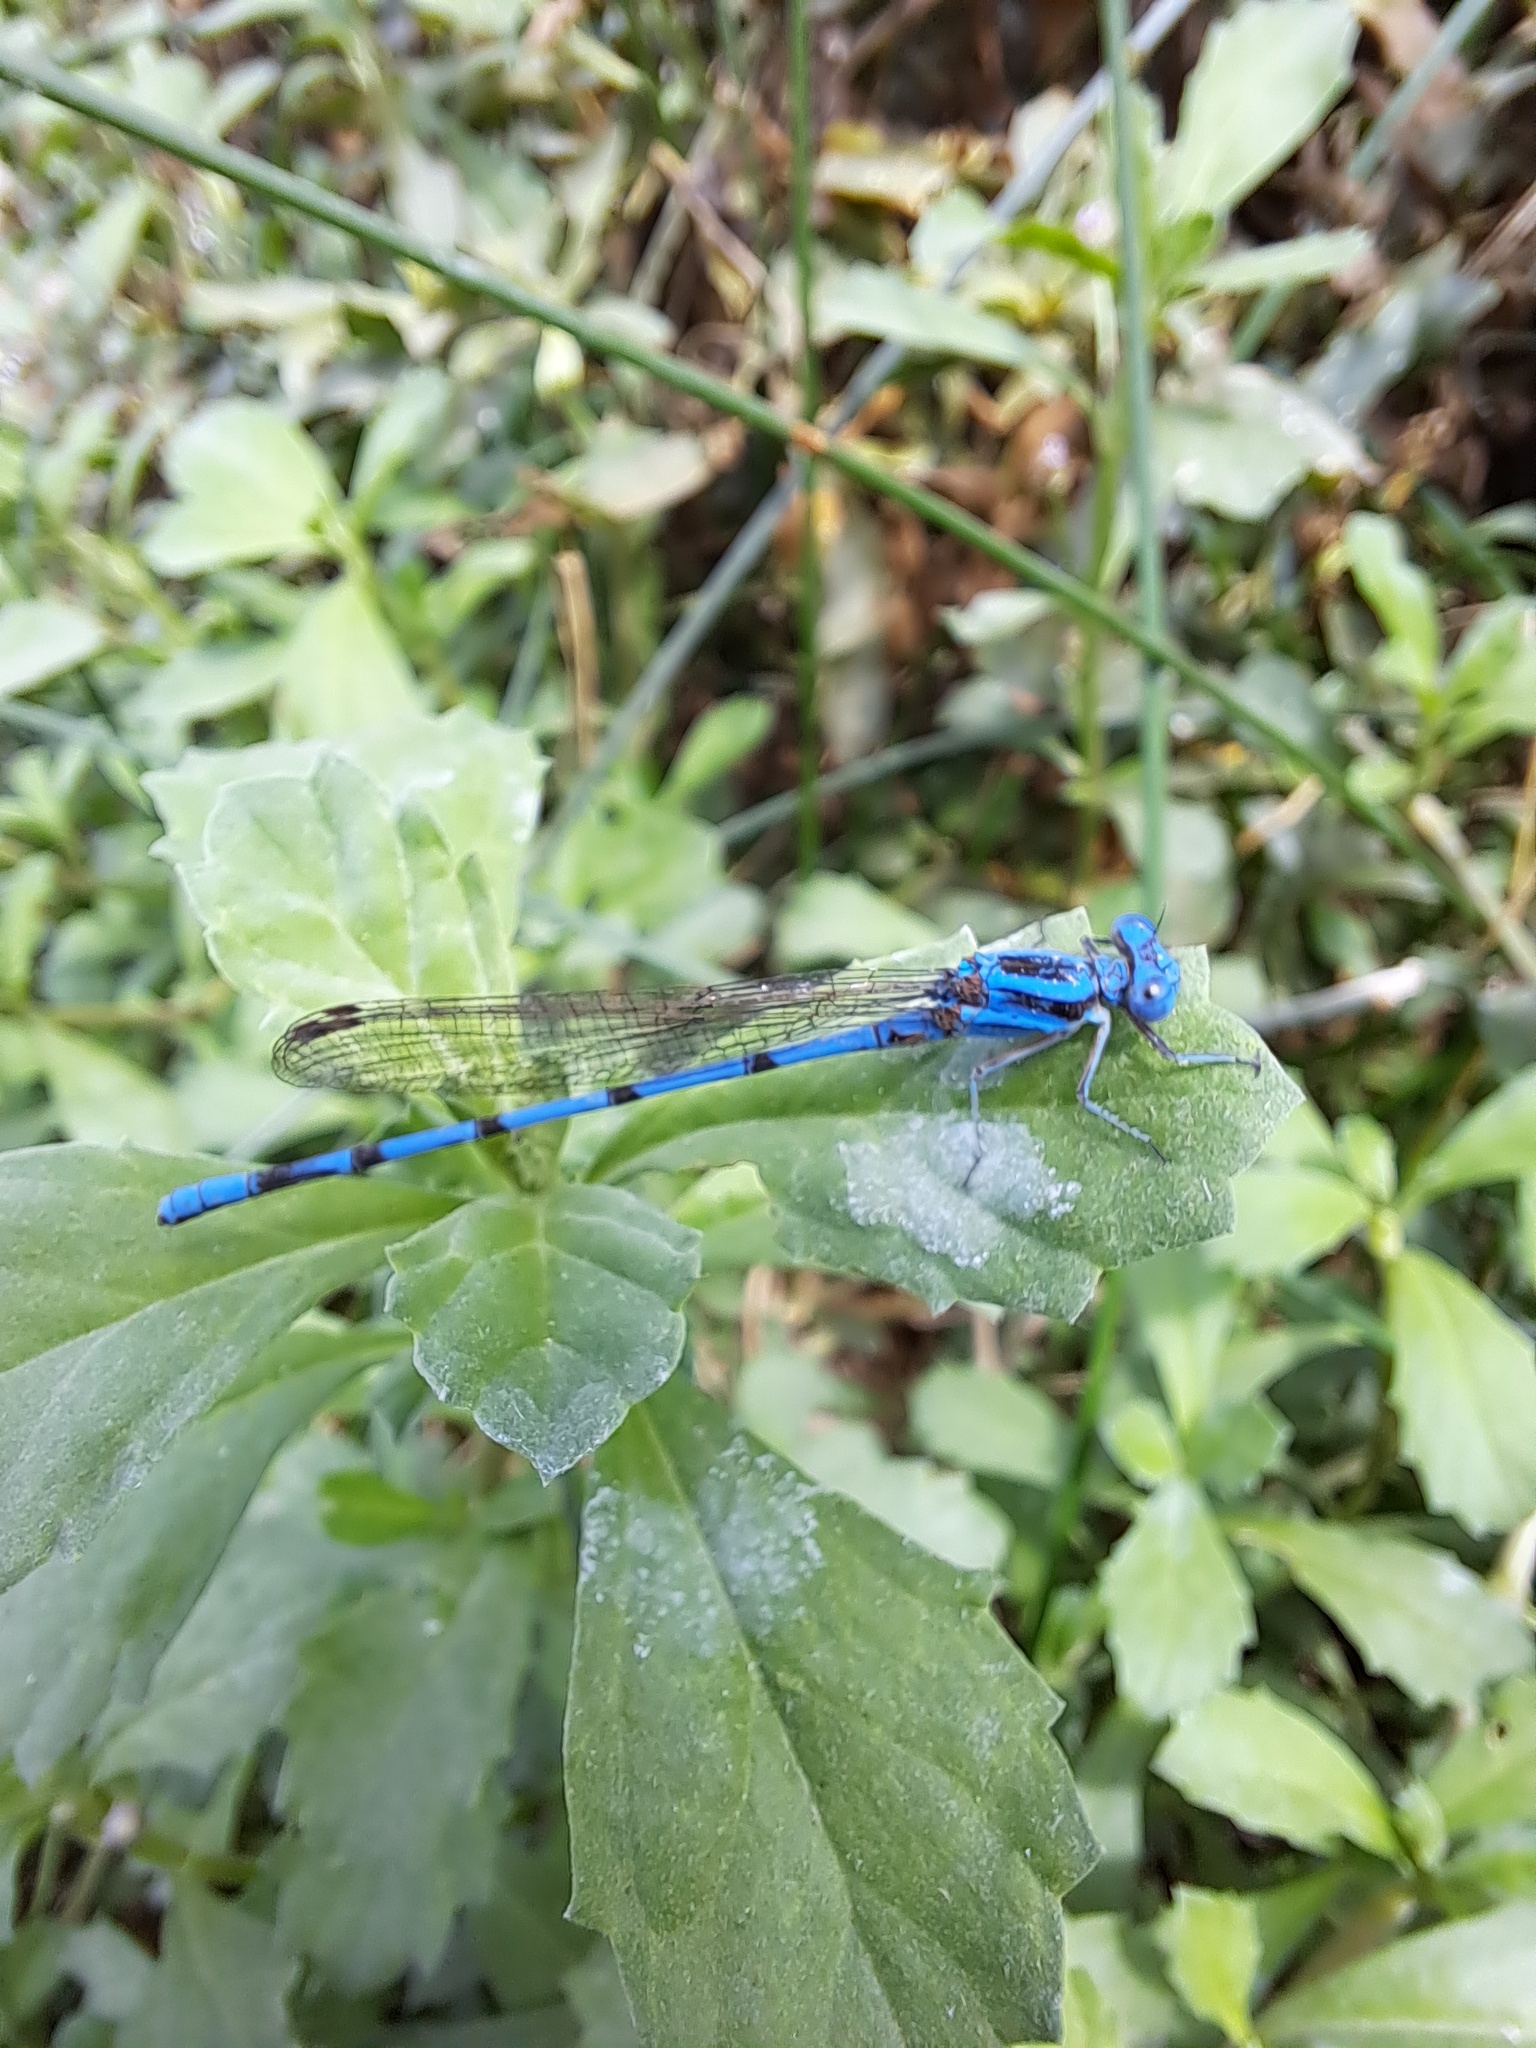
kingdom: Animalia
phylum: Arthropoda
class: Insecta
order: Odonata
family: Coenagrionidae
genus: Argia
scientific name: Argia inculta
